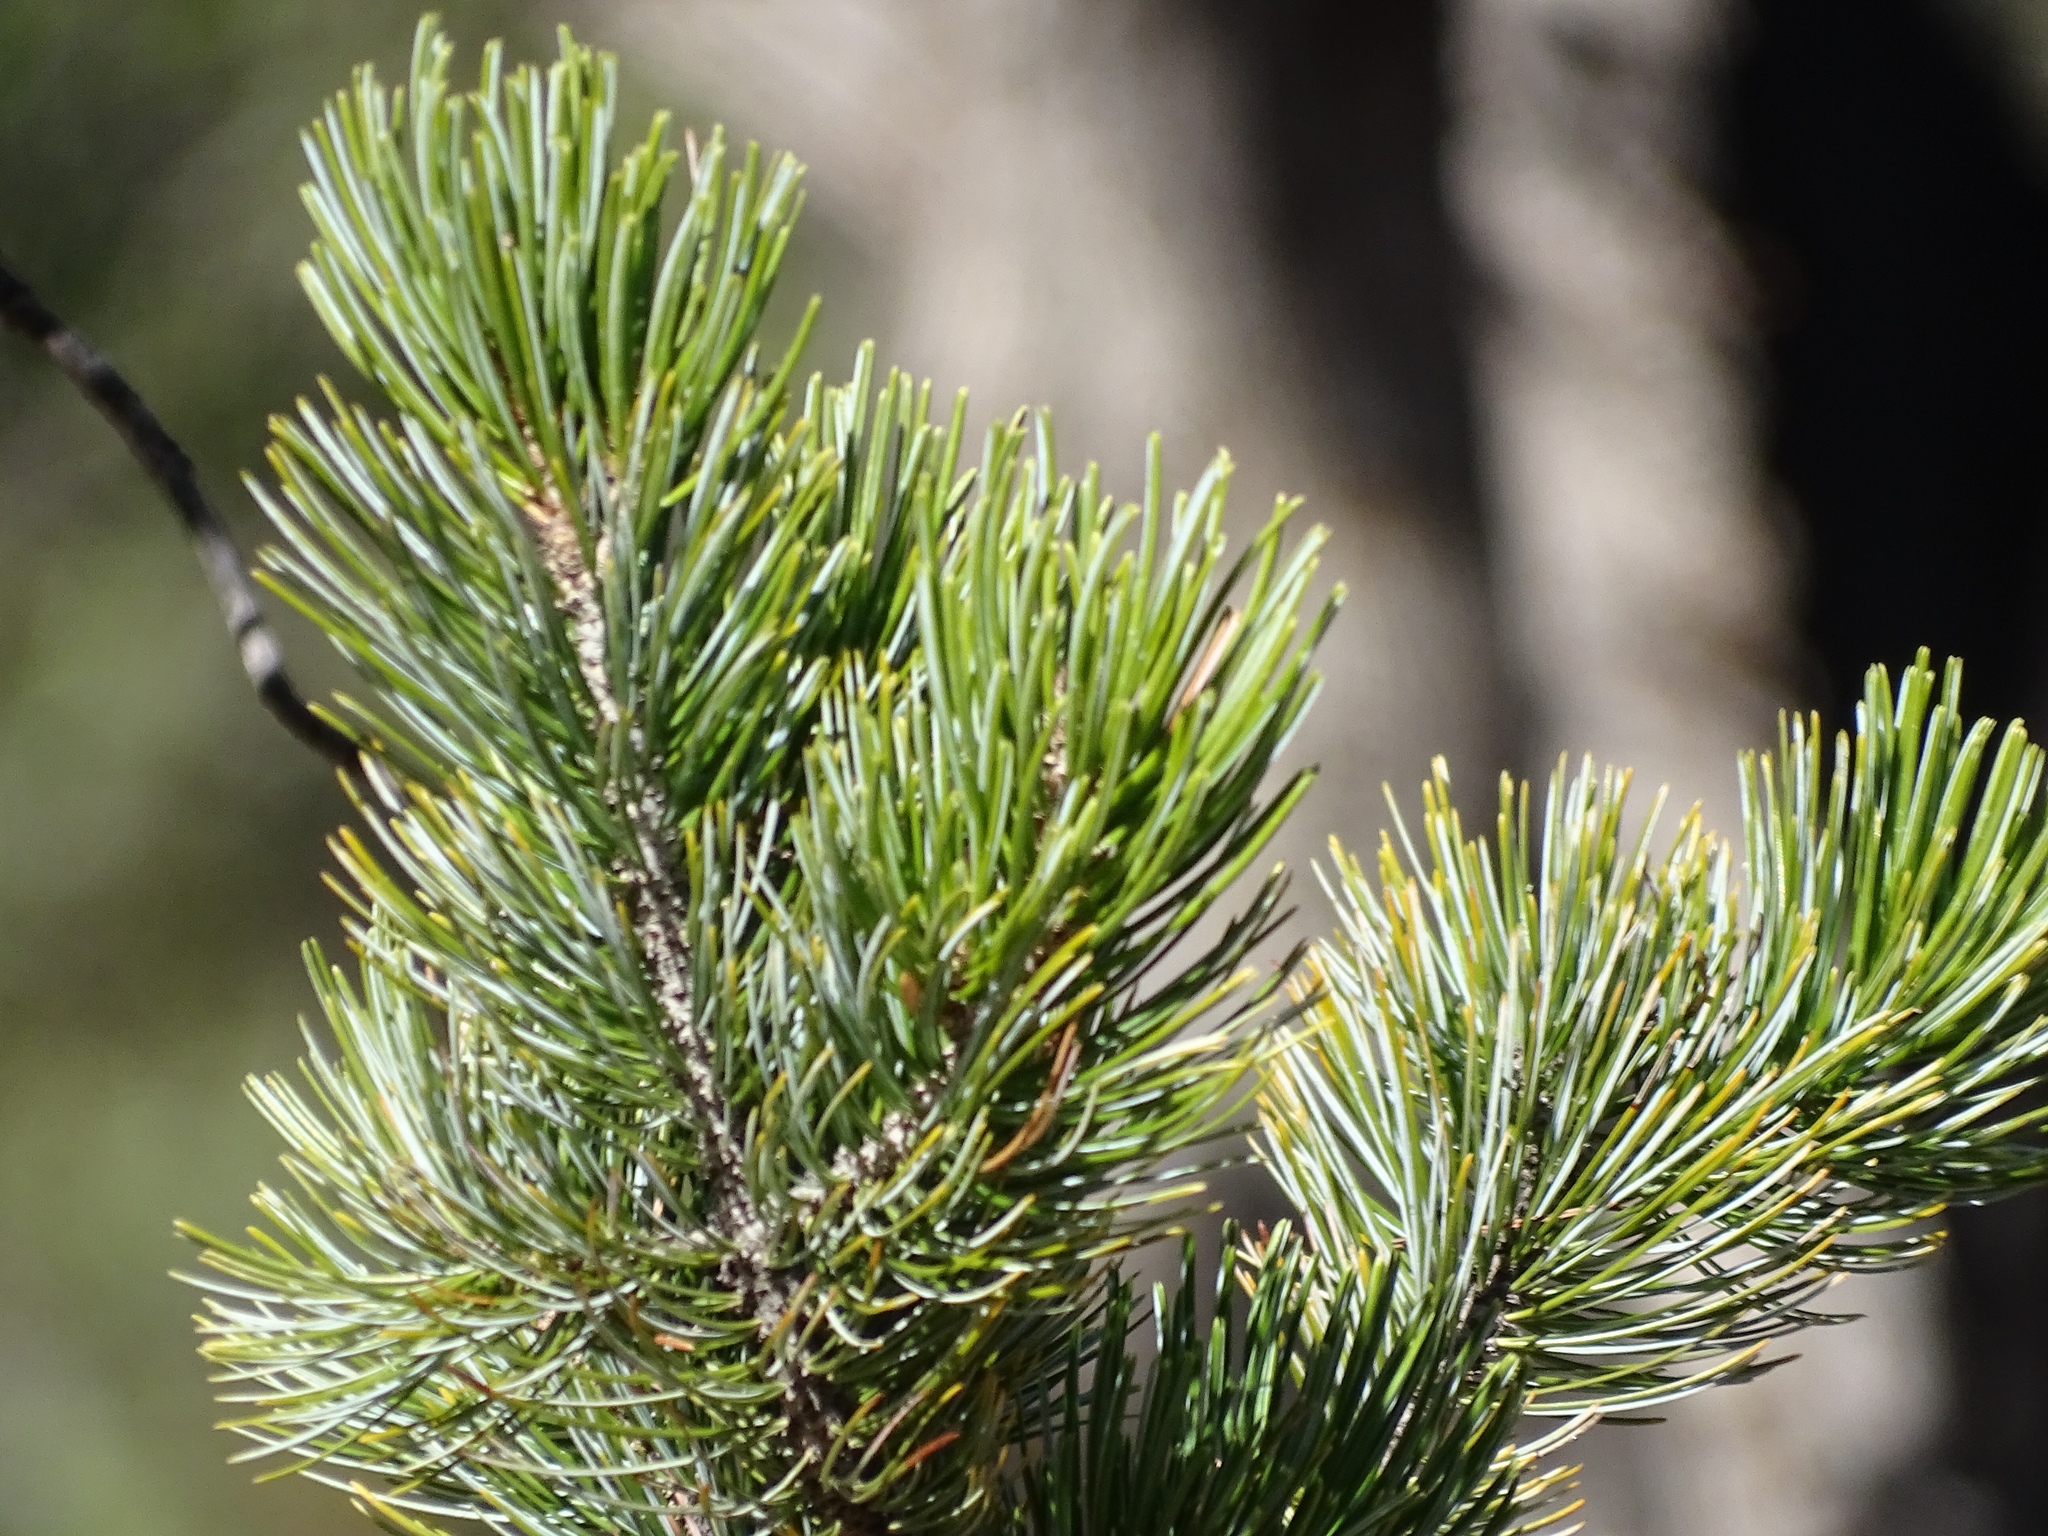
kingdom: Plantae
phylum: Tracheophyta
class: Pinopsida
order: Pinales
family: Pinaceae
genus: Pinus
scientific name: Pinus cembroides
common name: Mexican nut pine
